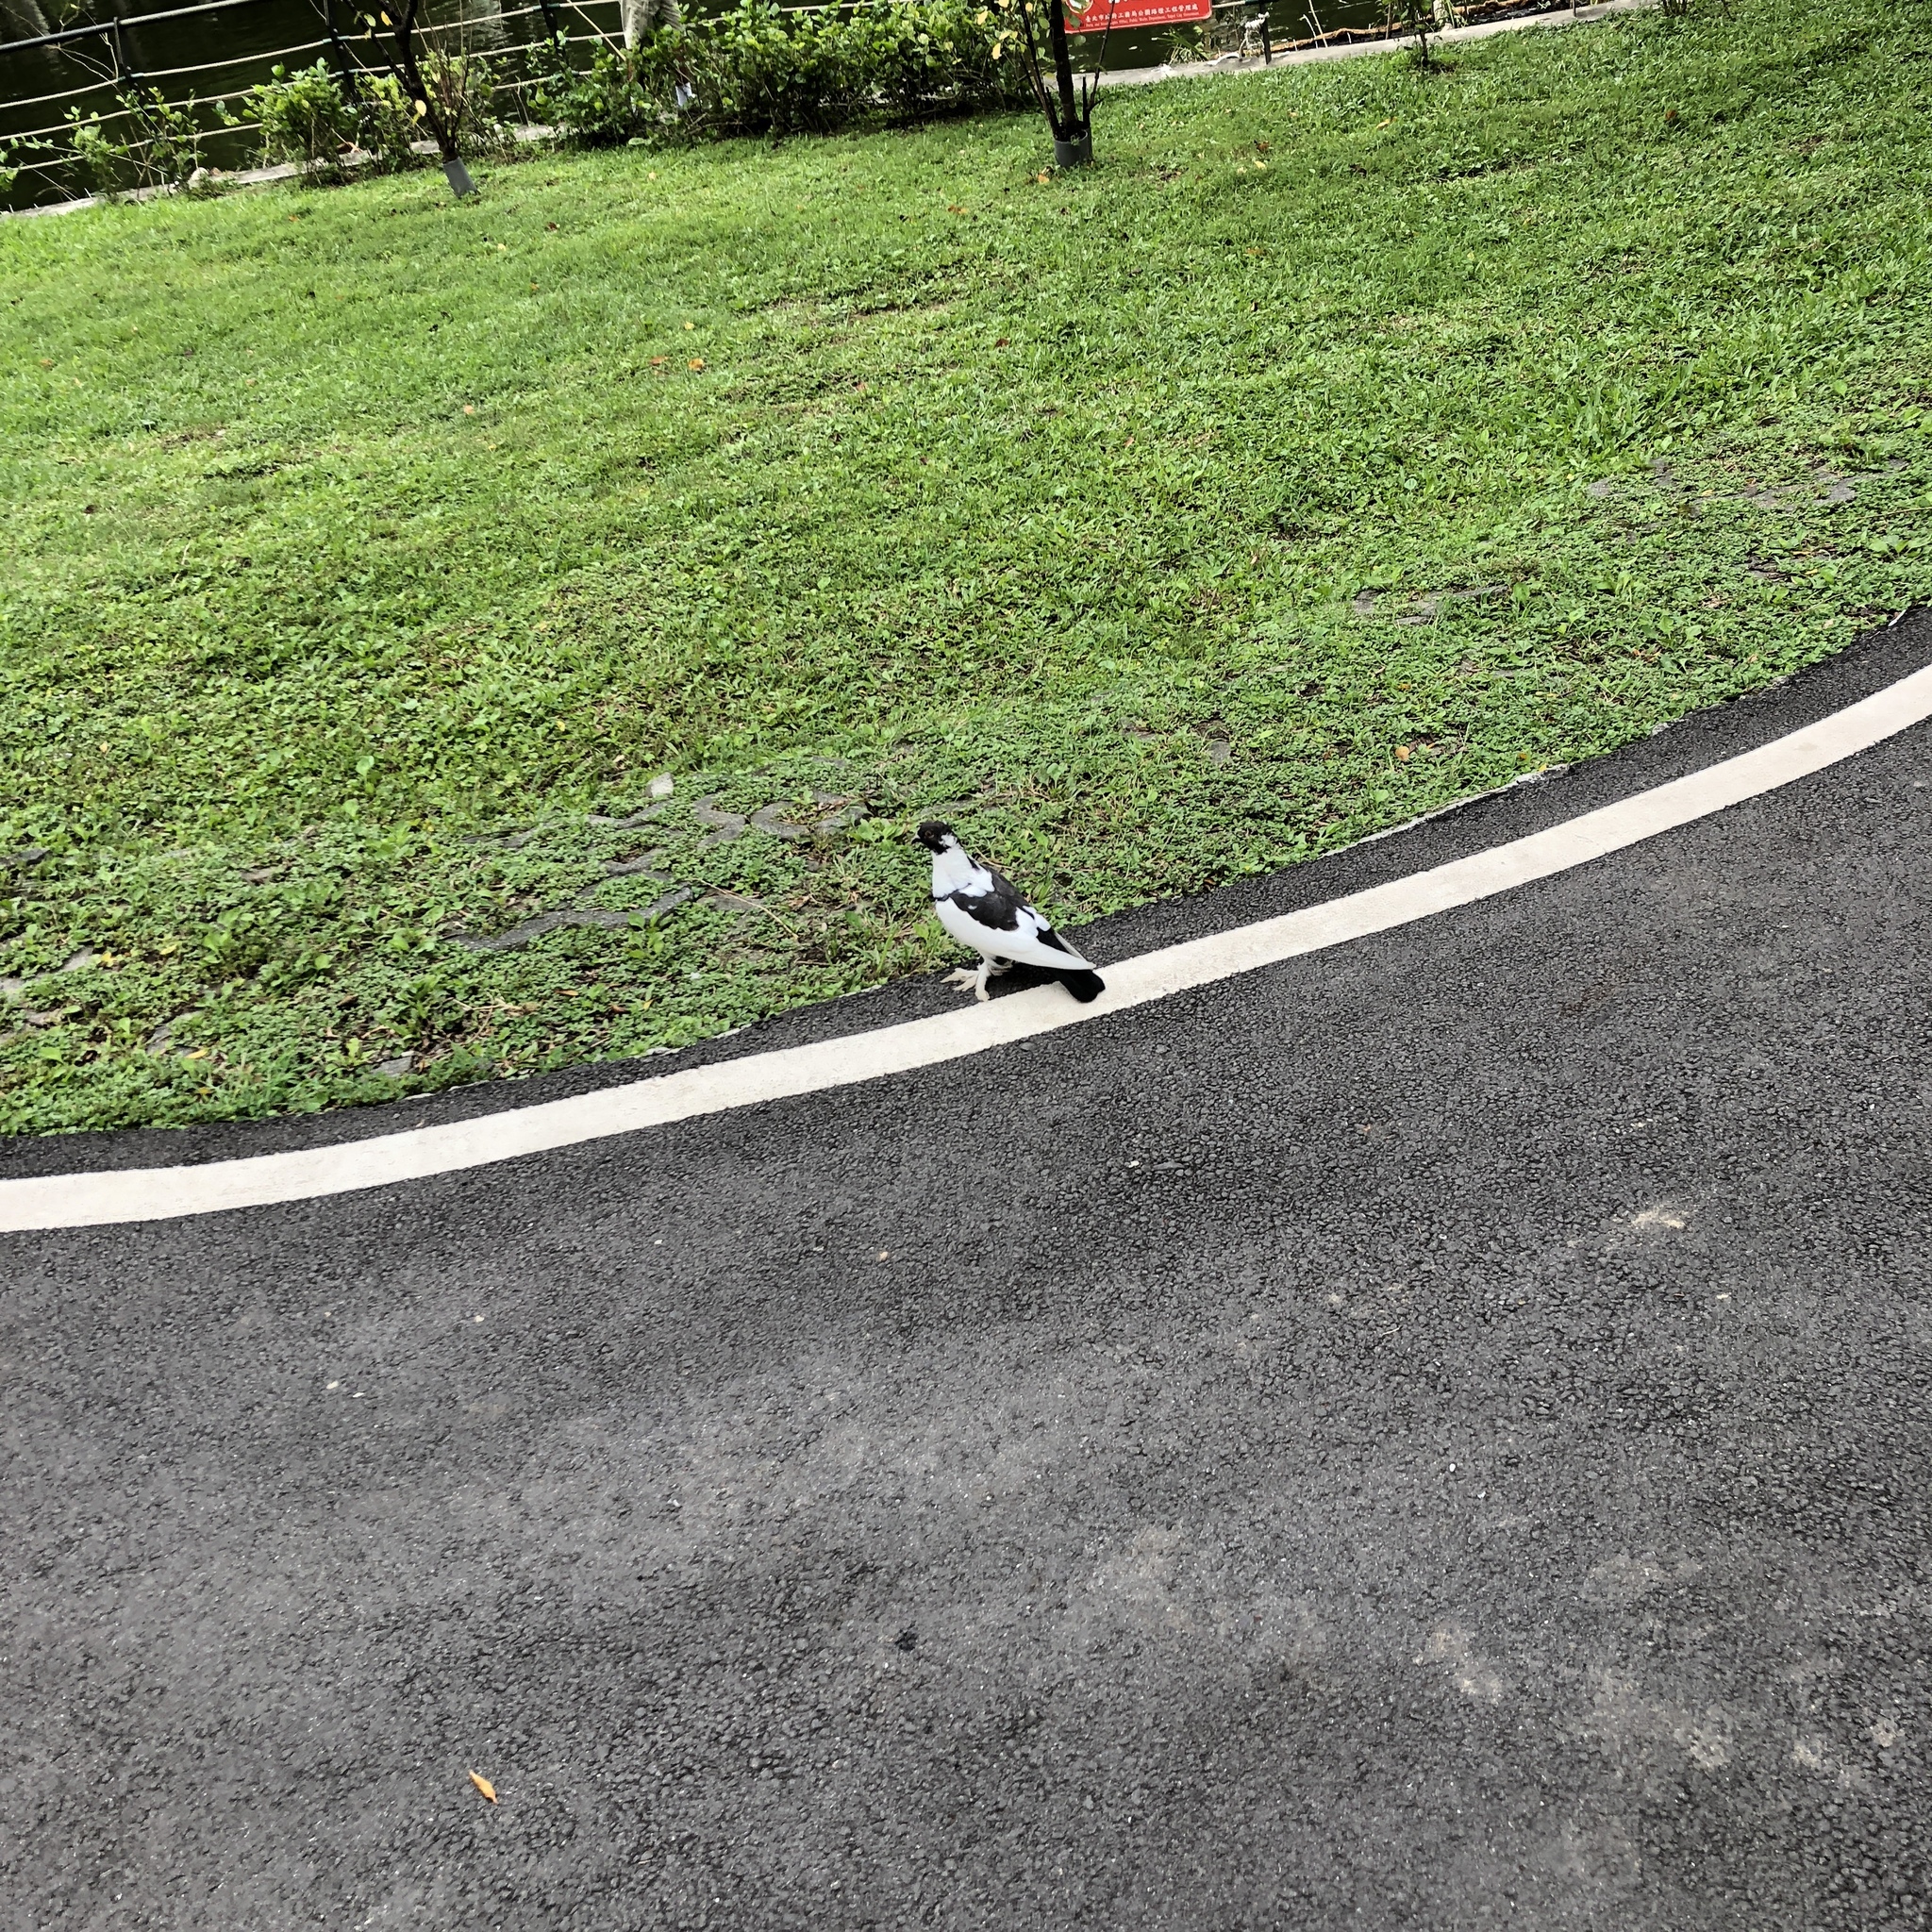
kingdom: Animalia
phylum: Chordata
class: Aves
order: Columbiformes
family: Columbidae
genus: Columba
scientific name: Columba livia
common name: Rock pigeon
